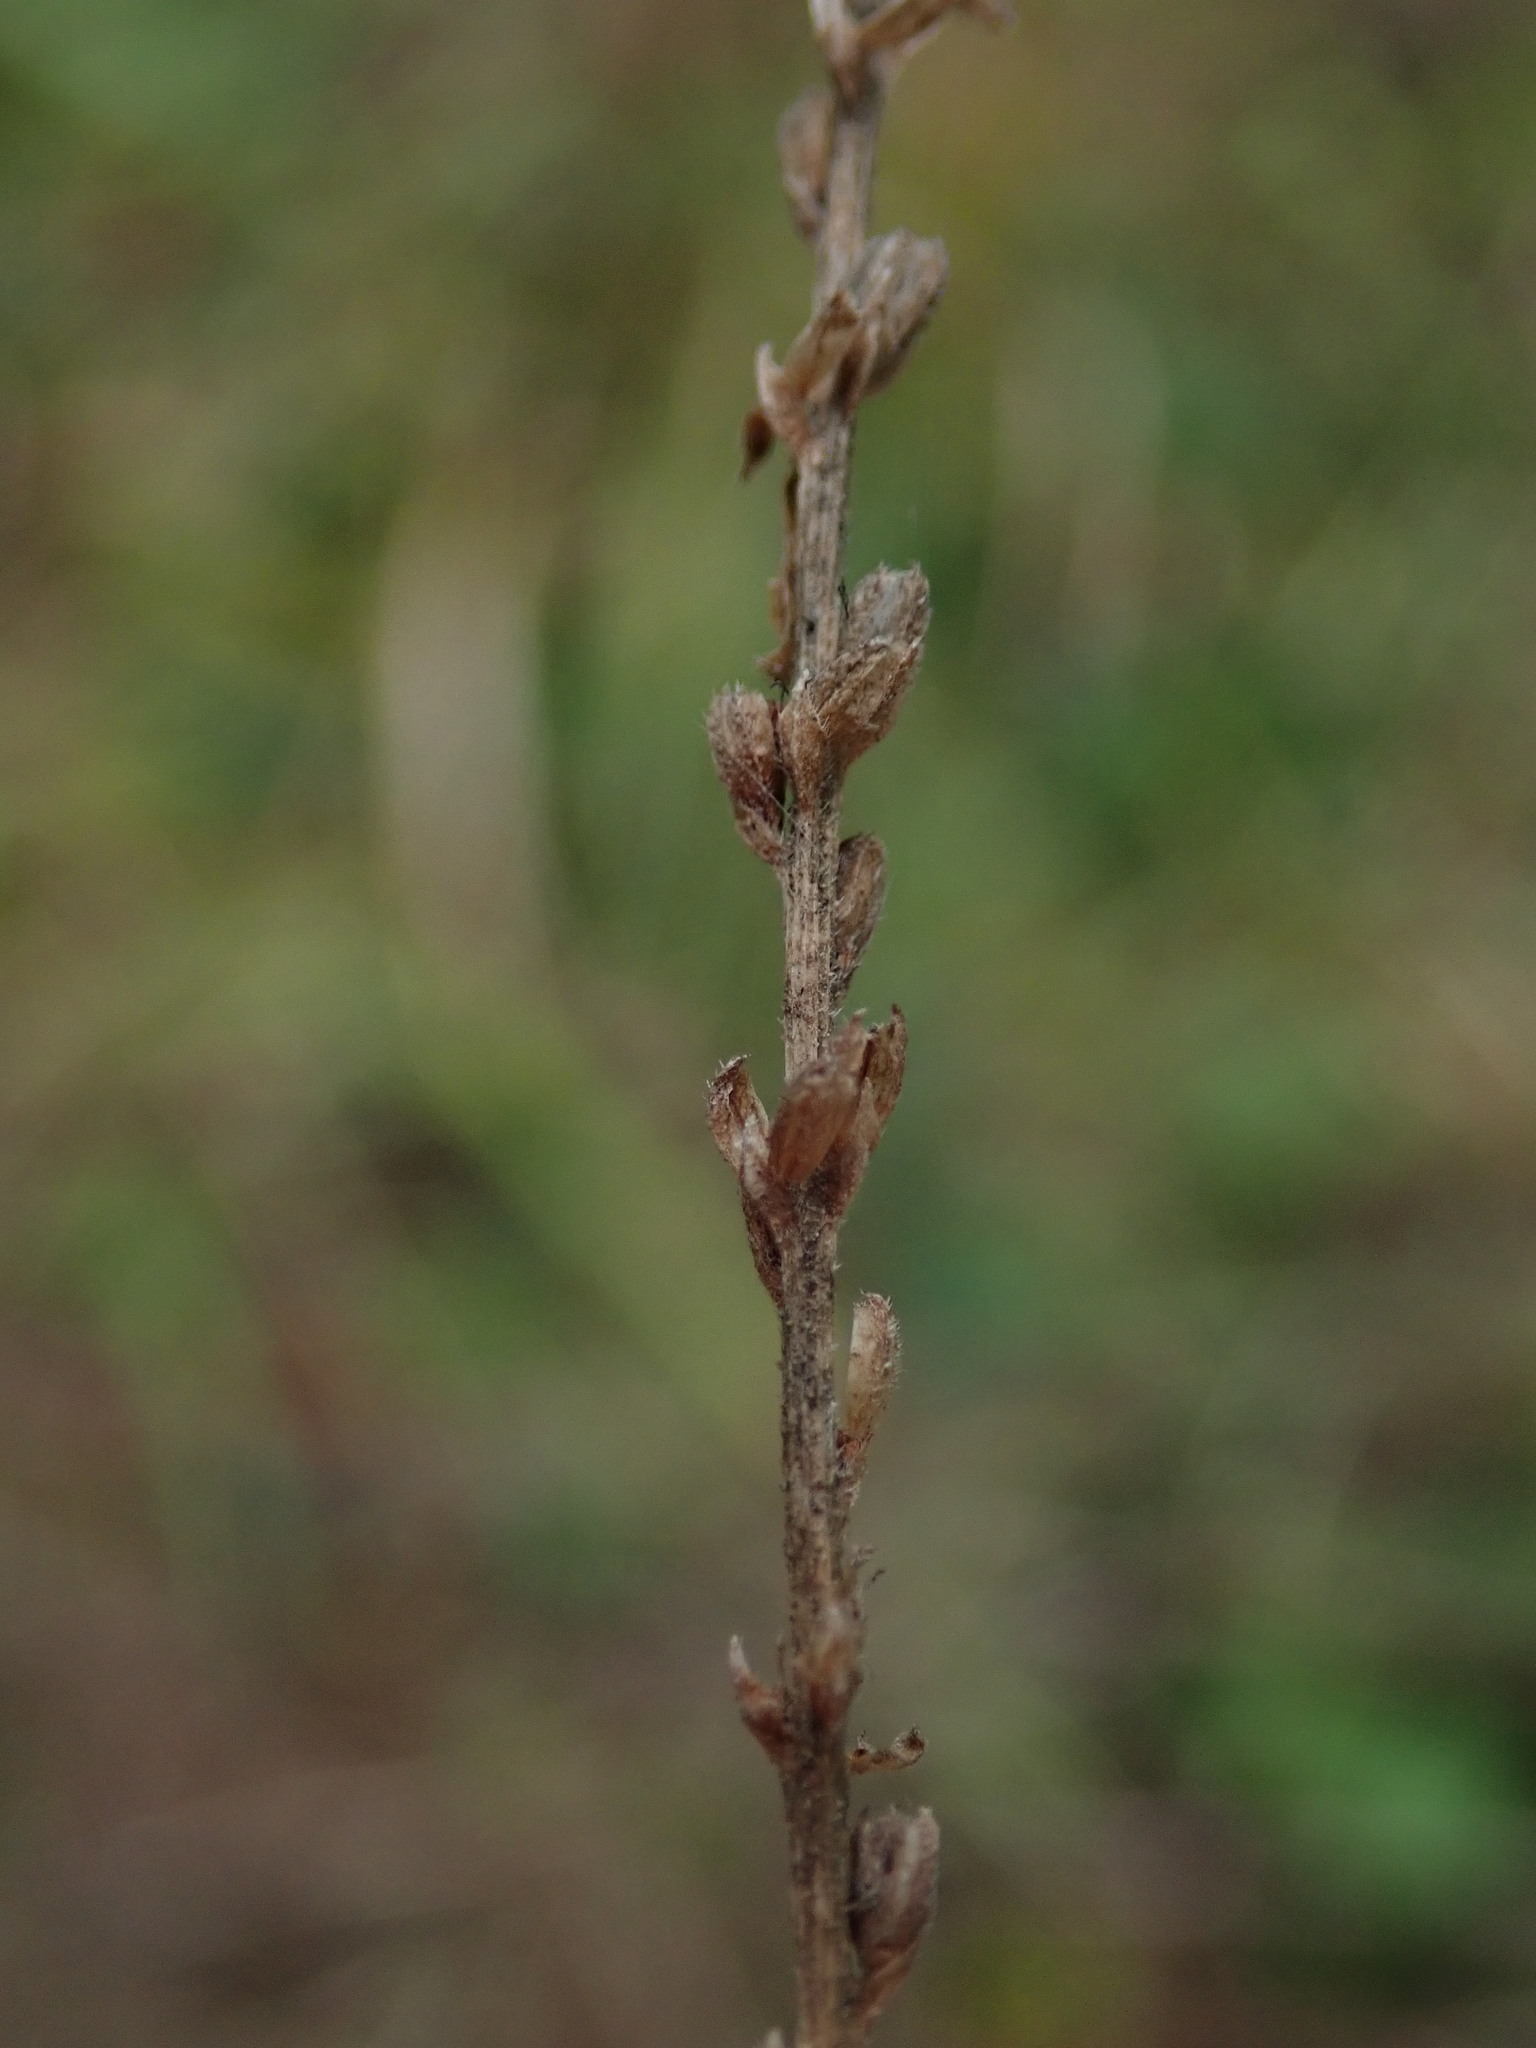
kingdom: Plantae
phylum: Tracheophyta
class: Magnoliopsida
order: Lamiales
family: Verbenaceae
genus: Verbena
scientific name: Verbena officinalis
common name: Vervain
